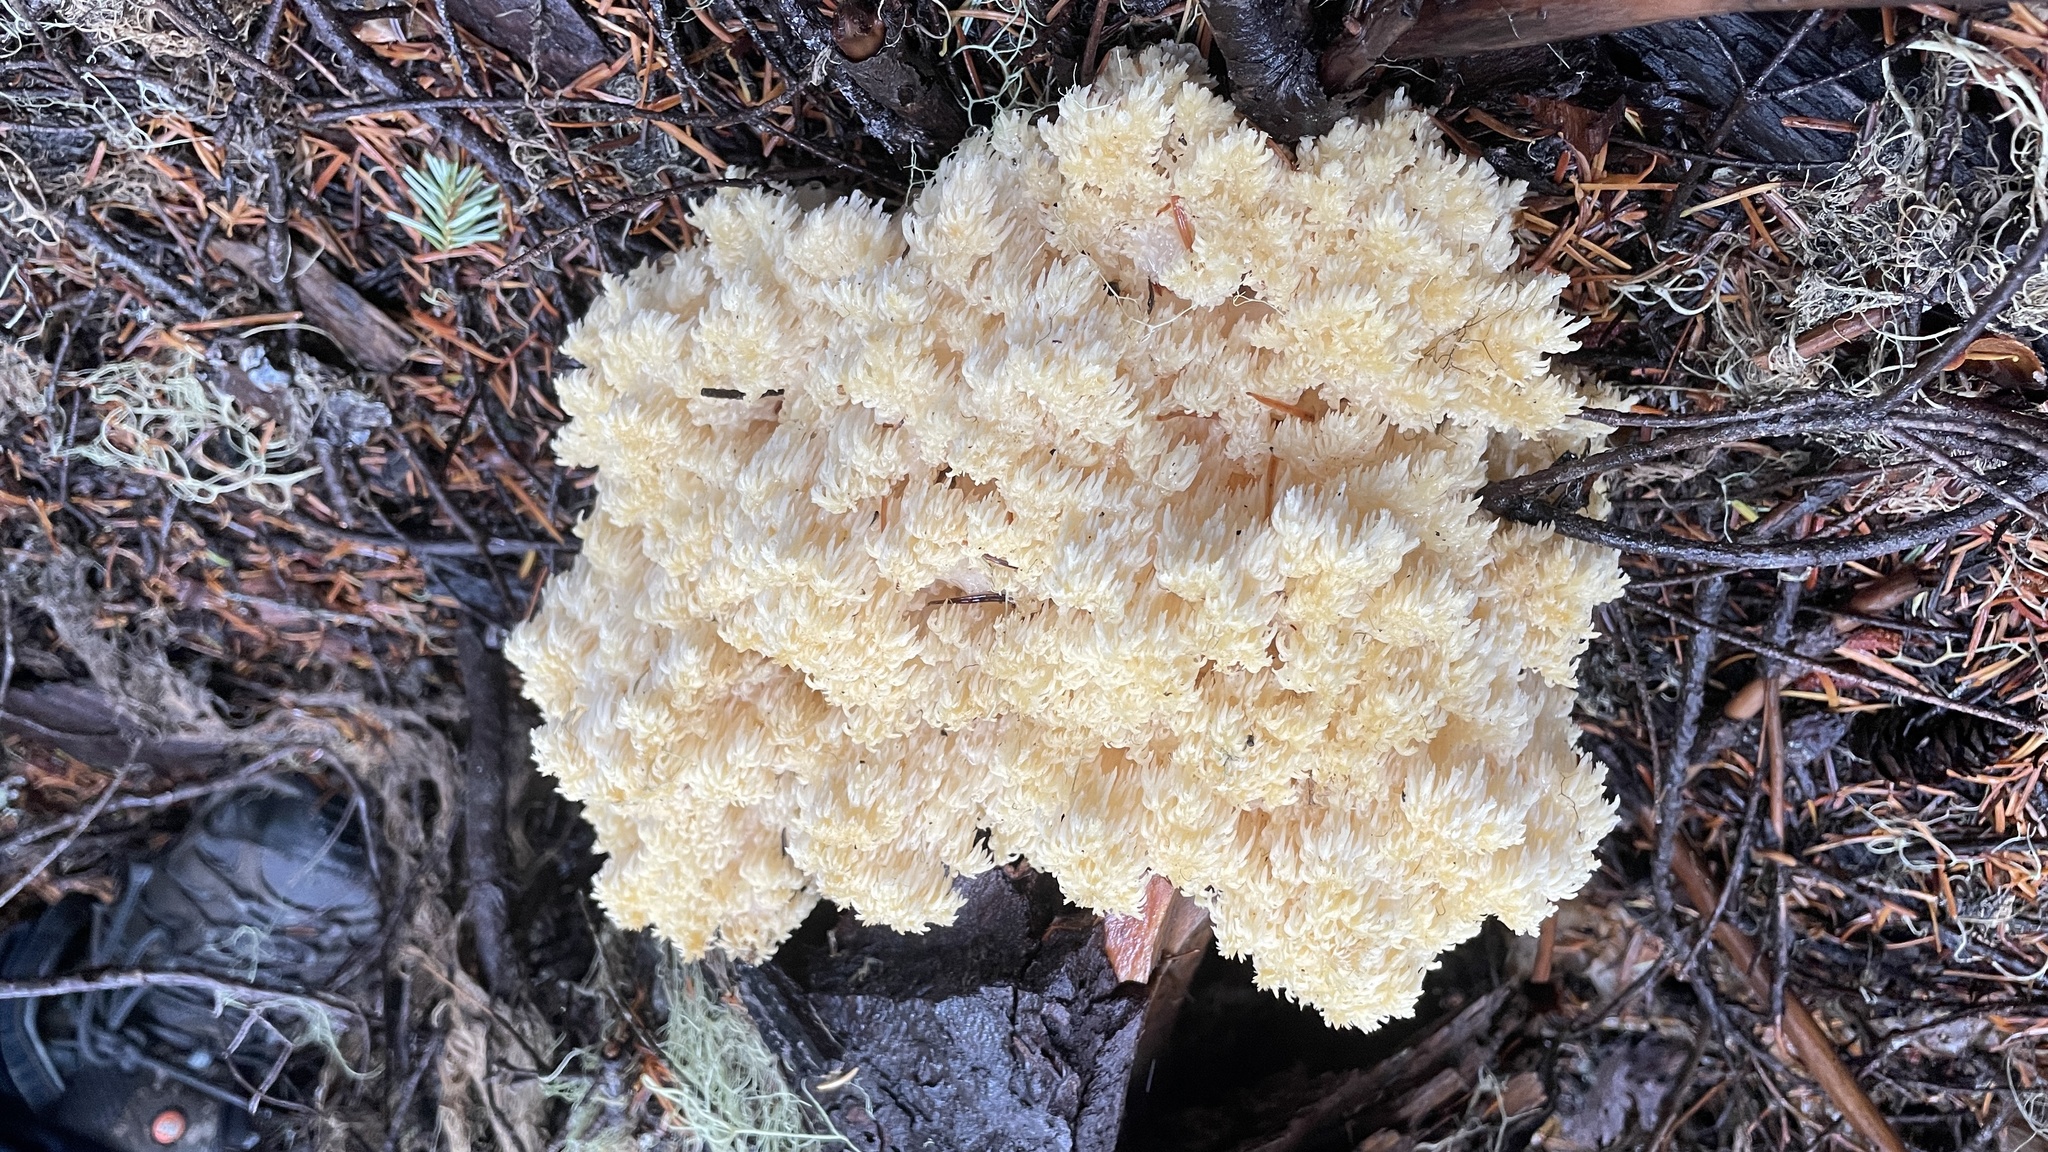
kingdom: Fungi
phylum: Basidiomycota
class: Agaricomycetes
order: Russulales
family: Hericiaceae
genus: Hericium
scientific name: Hericium abietis
